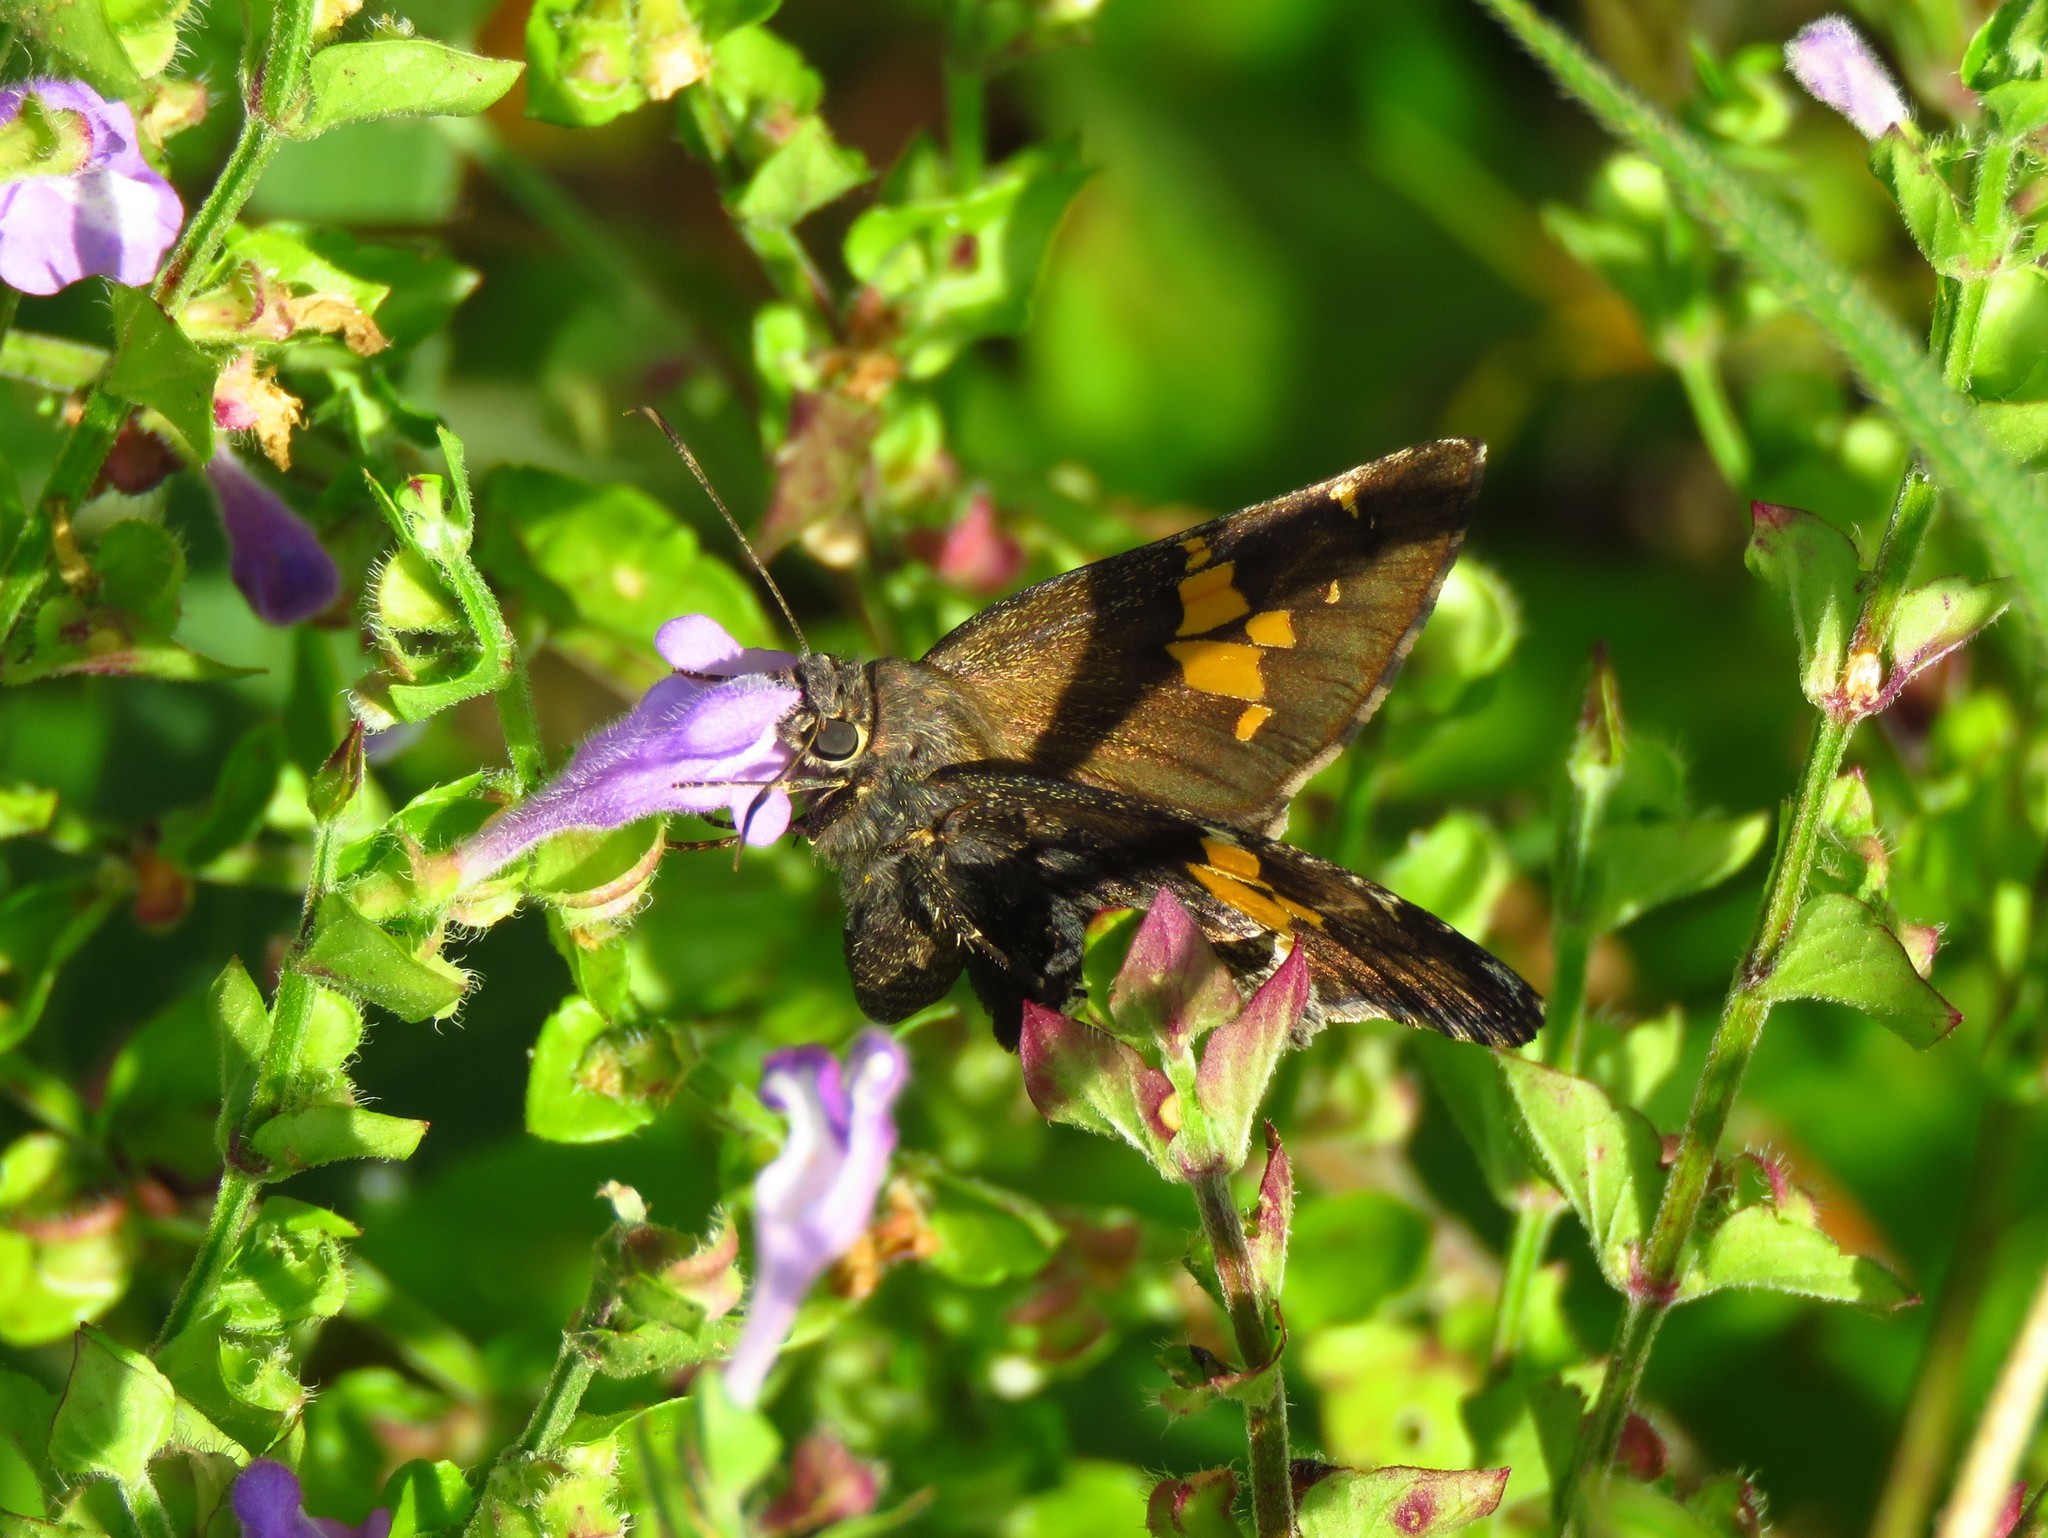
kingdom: Animalia
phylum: Arthropoda
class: Insecta
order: Lepidoptera
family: Hesperiidae
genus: Thorybes
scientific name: Thorybes lyciades
